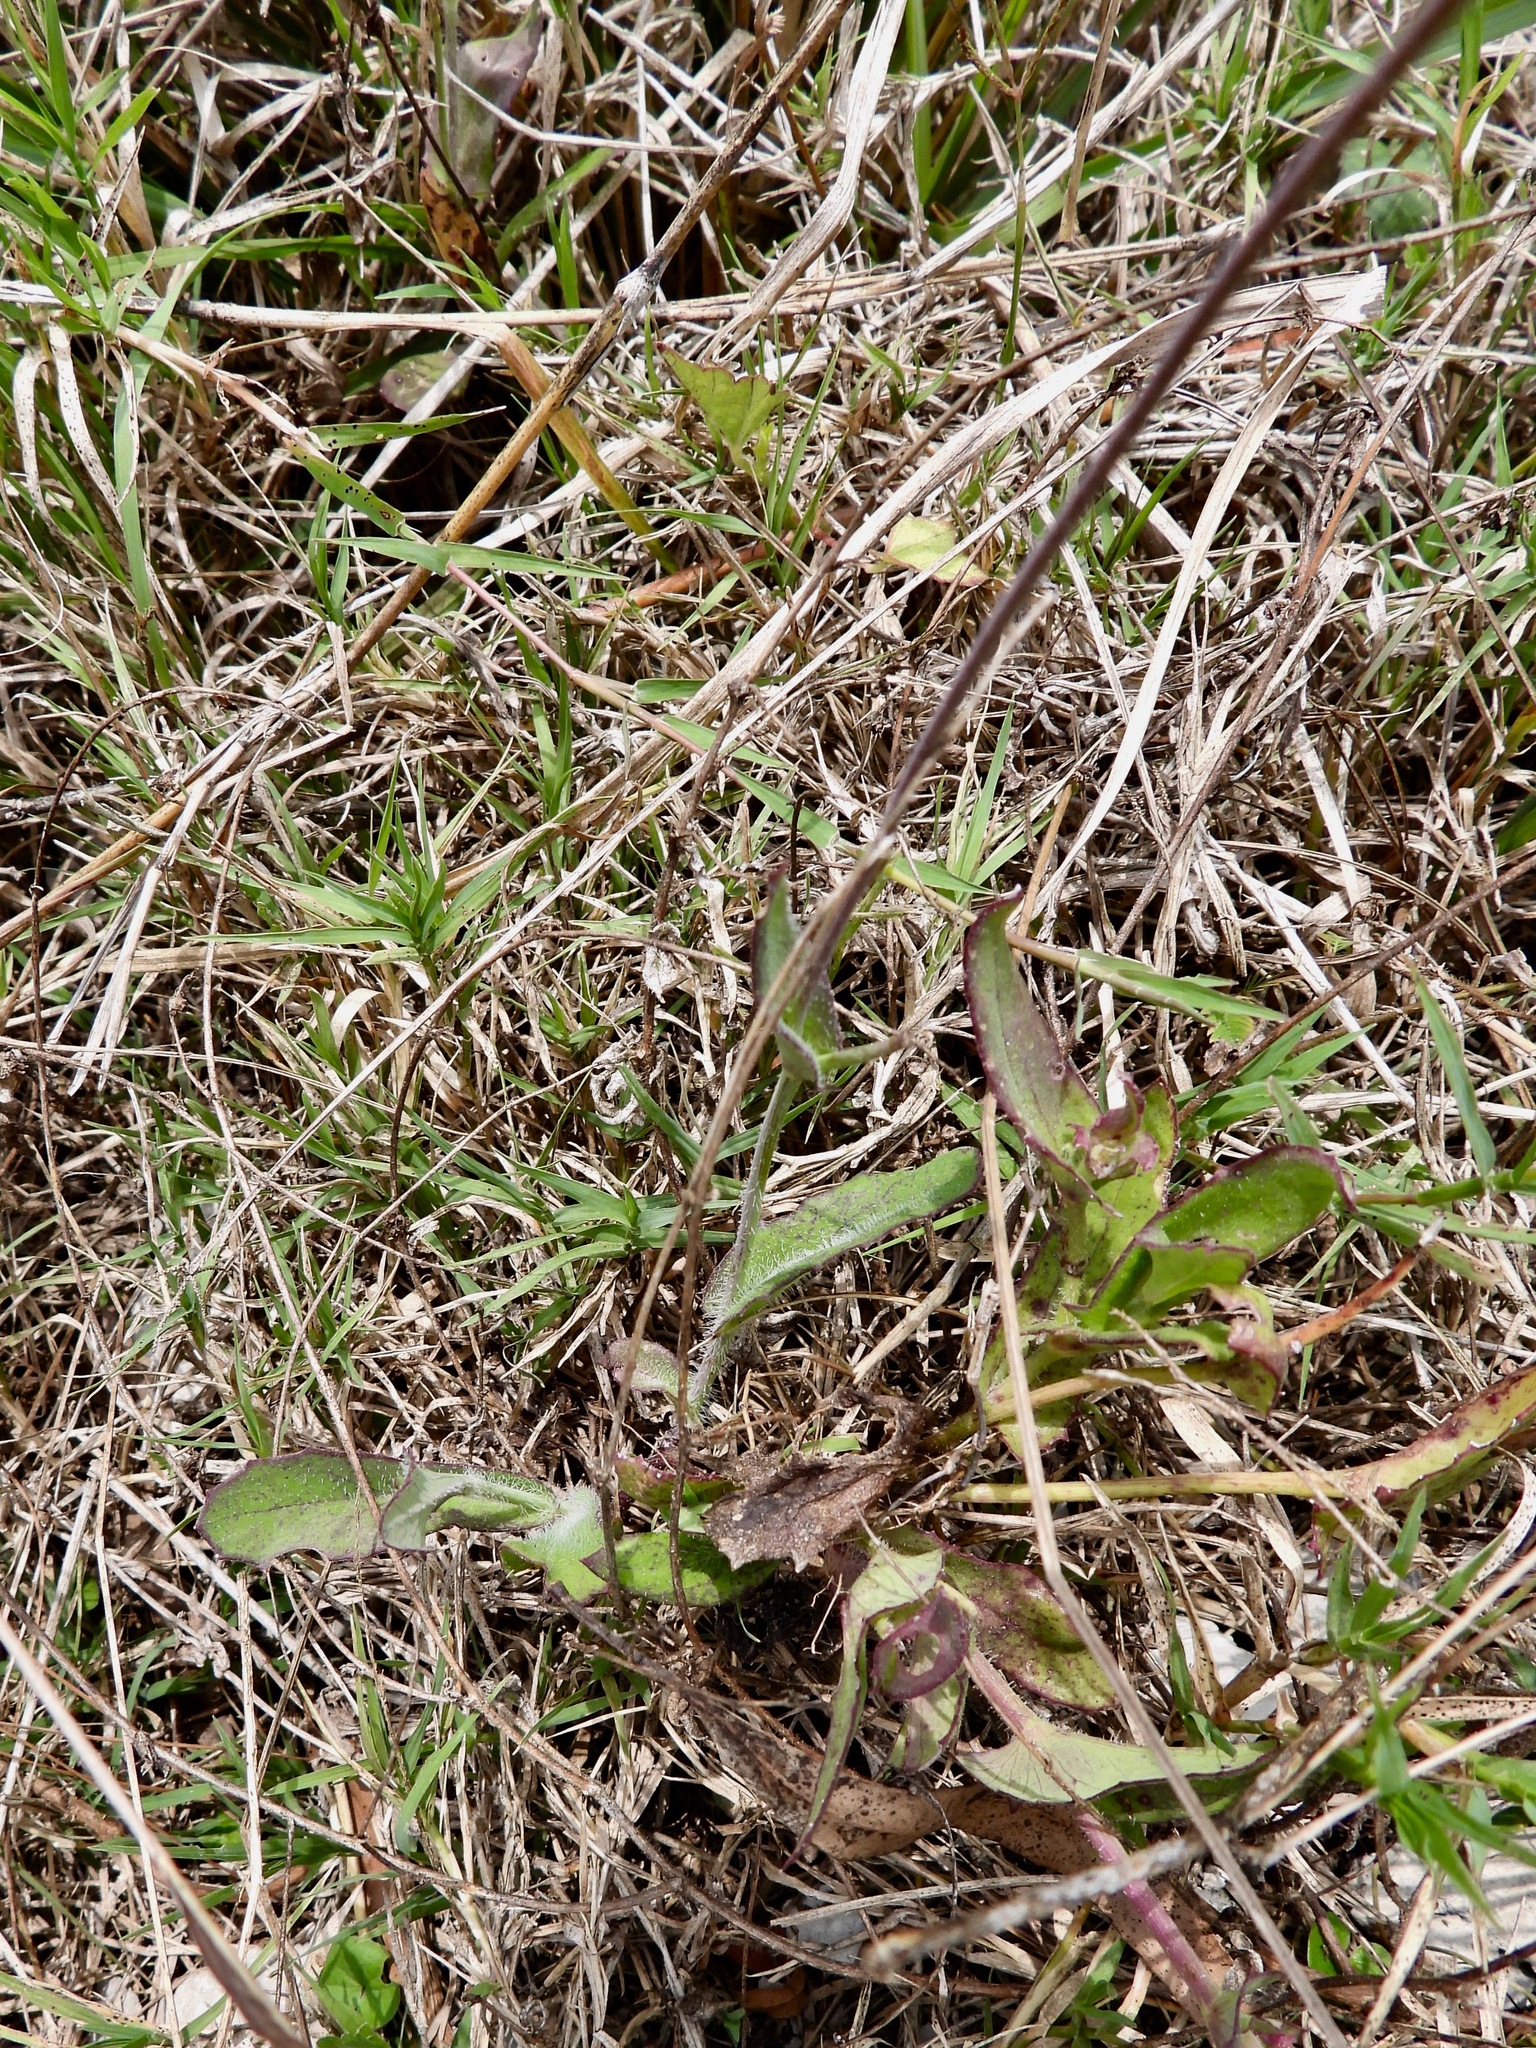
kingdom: Plantae
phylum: Tracheophyta
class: Magnoliopsida
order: Asterales
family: Asteraceae
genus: Emilia
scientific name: Emilia fosbergii
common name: Florida tasselflower
